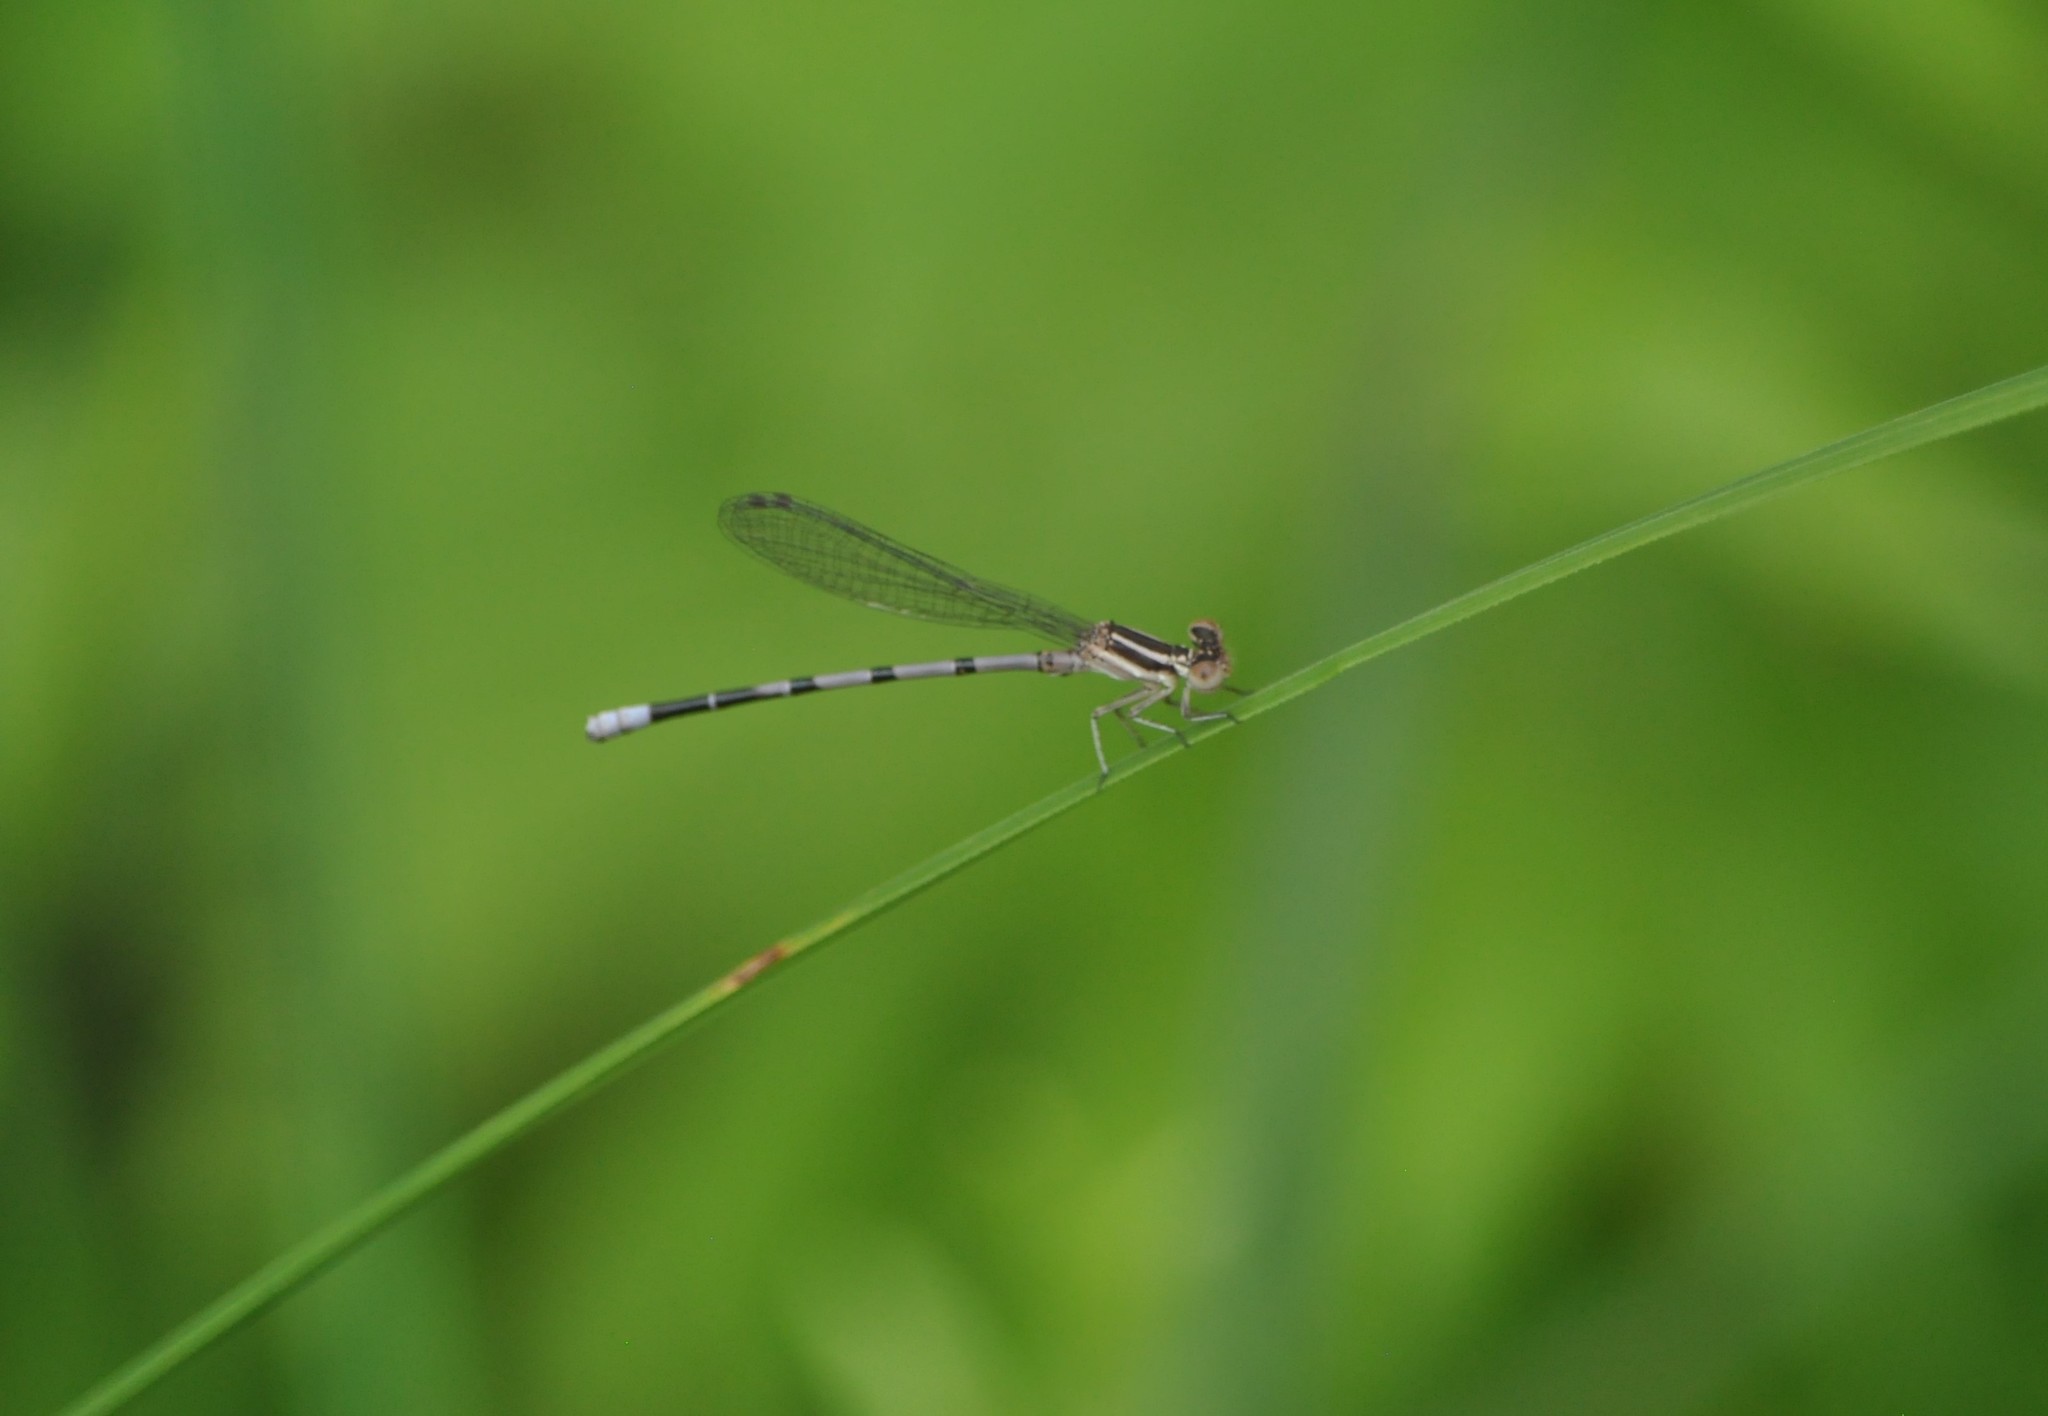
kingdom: Animalia
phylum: Arthropoda
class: Insecta
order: Odonata
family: Coenagrionidae
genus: Argia
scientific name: Argia bipunctulata
